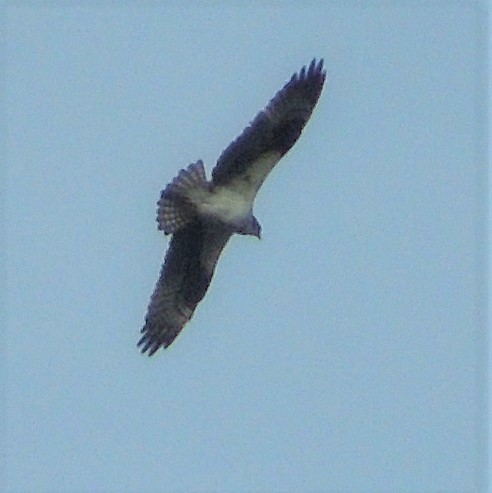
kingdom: Animalia
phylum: Chordata
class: Aves
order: Accipitriformes
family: Pandionidae
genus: Pandion
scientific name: Pandion haliaetus
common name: Osprey
